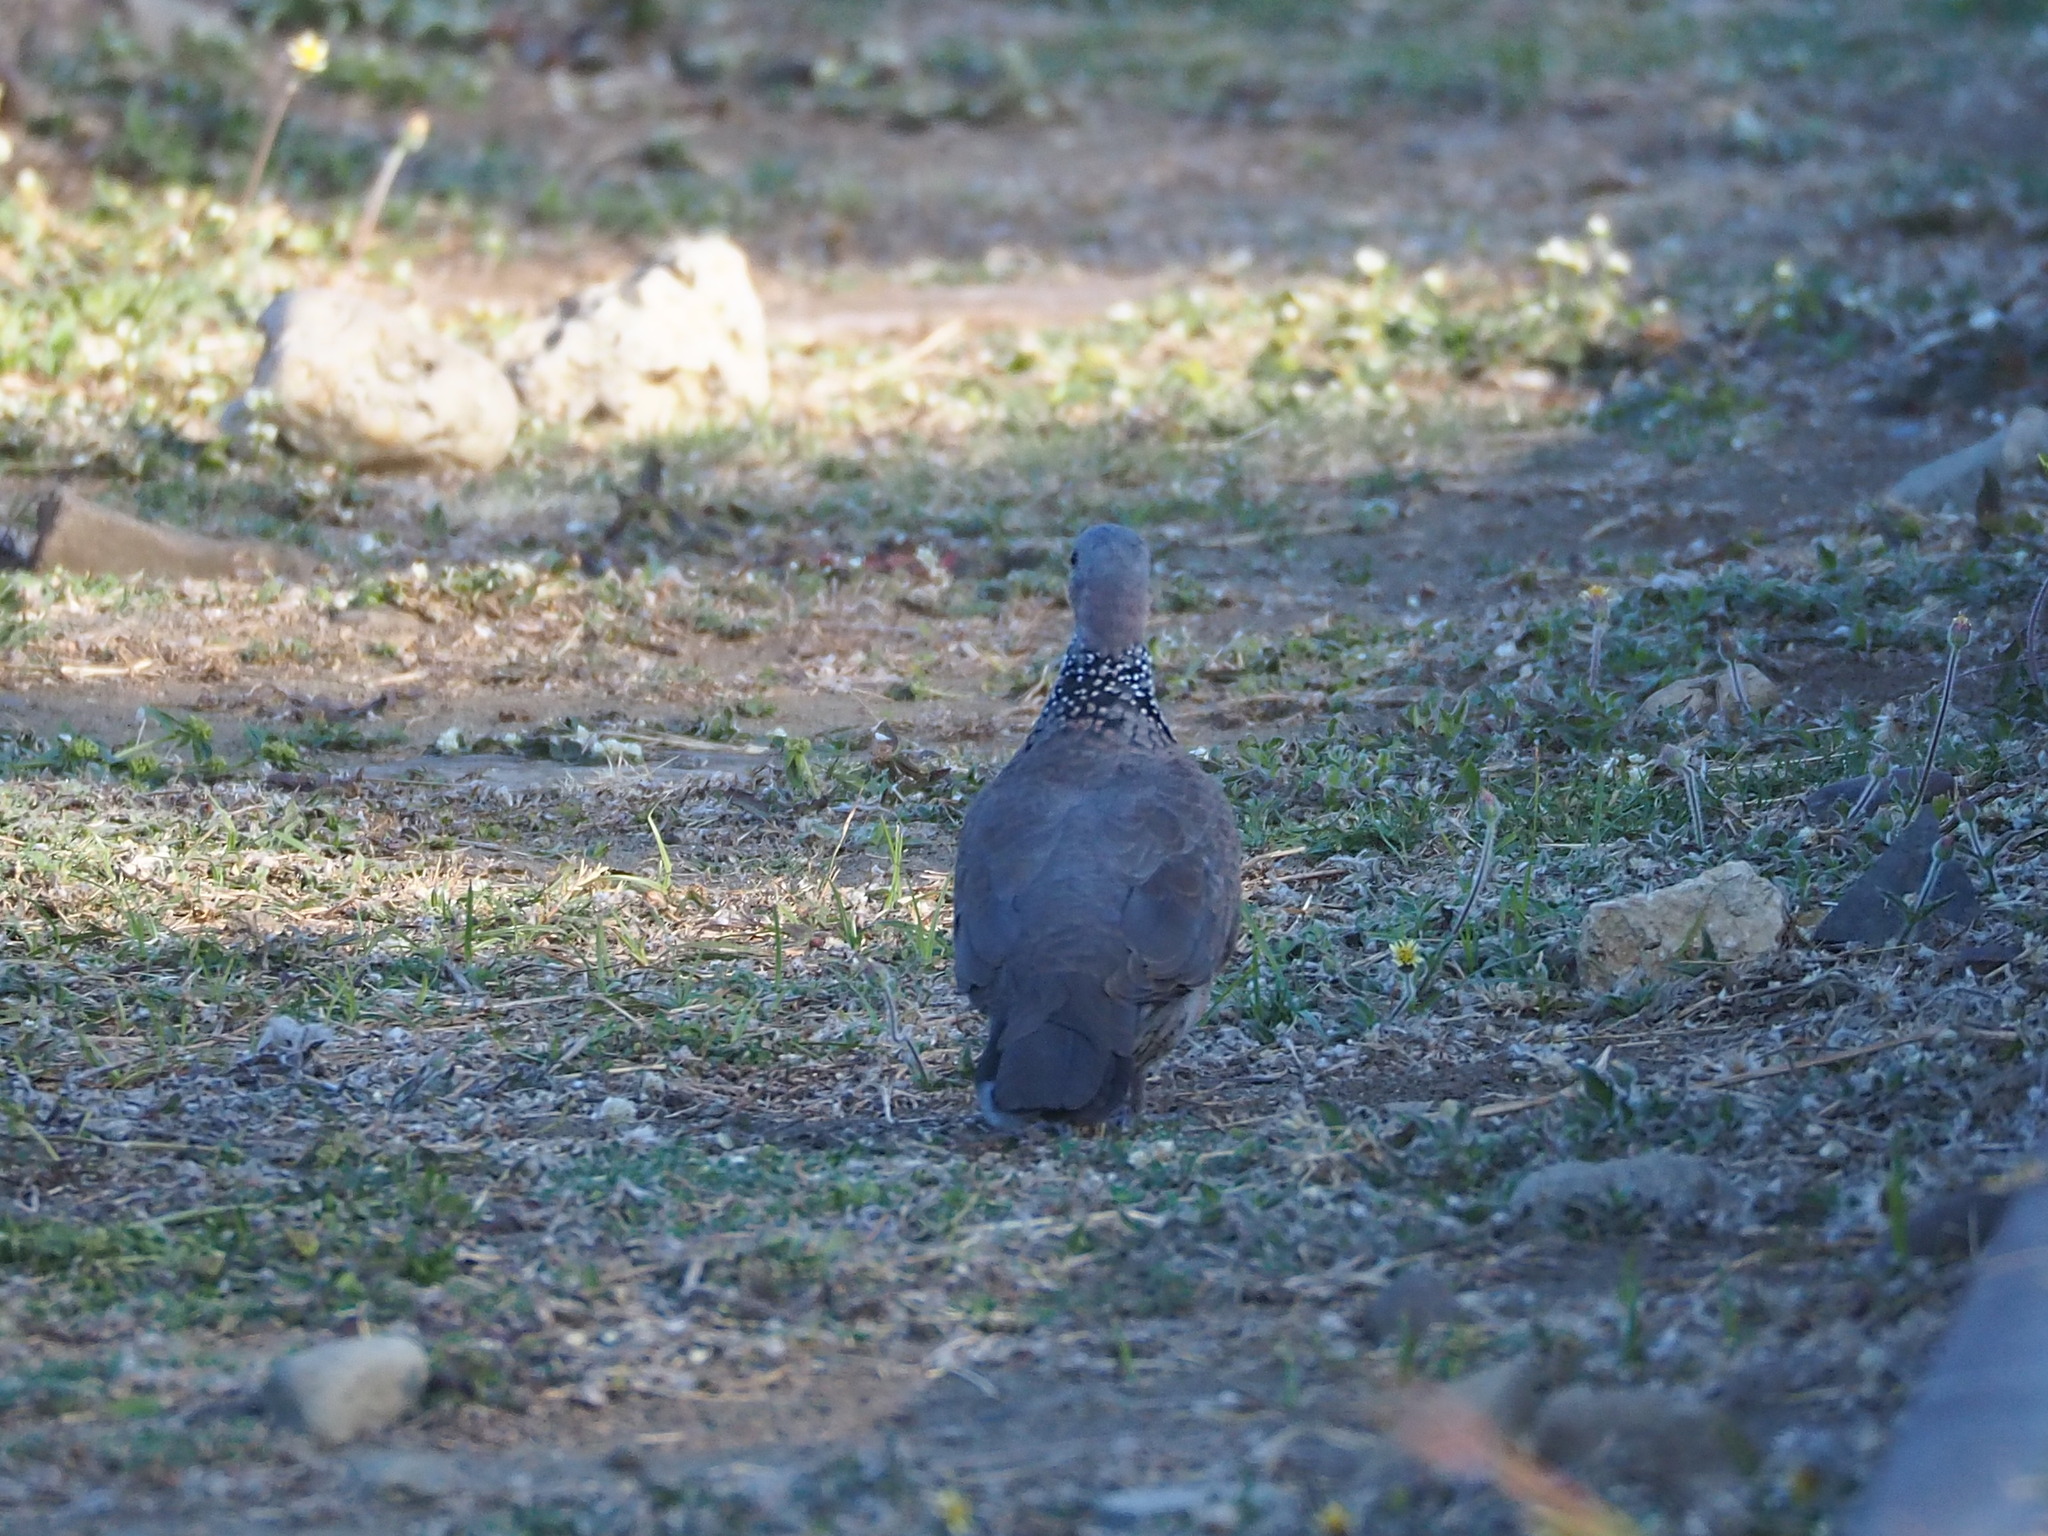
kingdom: Animalia
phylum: Chordata
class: Aves
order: Columbiformes
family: Columbidae
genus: Spilopelia
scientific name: Spilopelia chinensis
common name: Spotted dove
